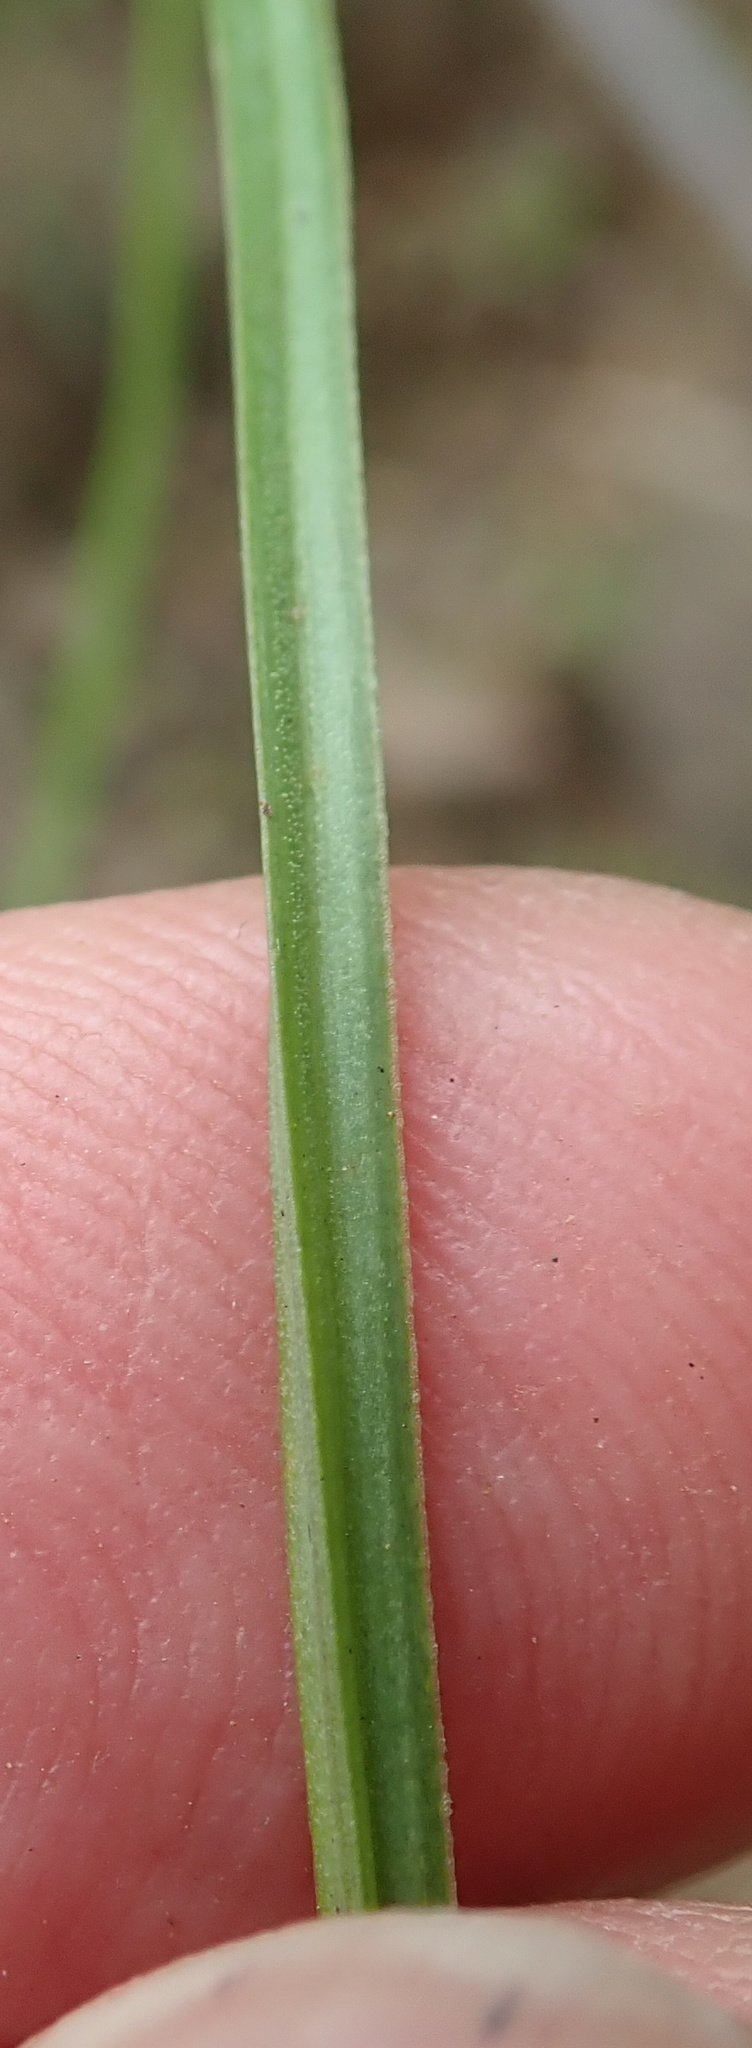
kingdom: Plantae
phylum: Tracheophyta
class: Liliopsida
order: Asparagales
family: Asphodelaceae
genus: Kniphofia
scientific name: Kniphofia triangularis
